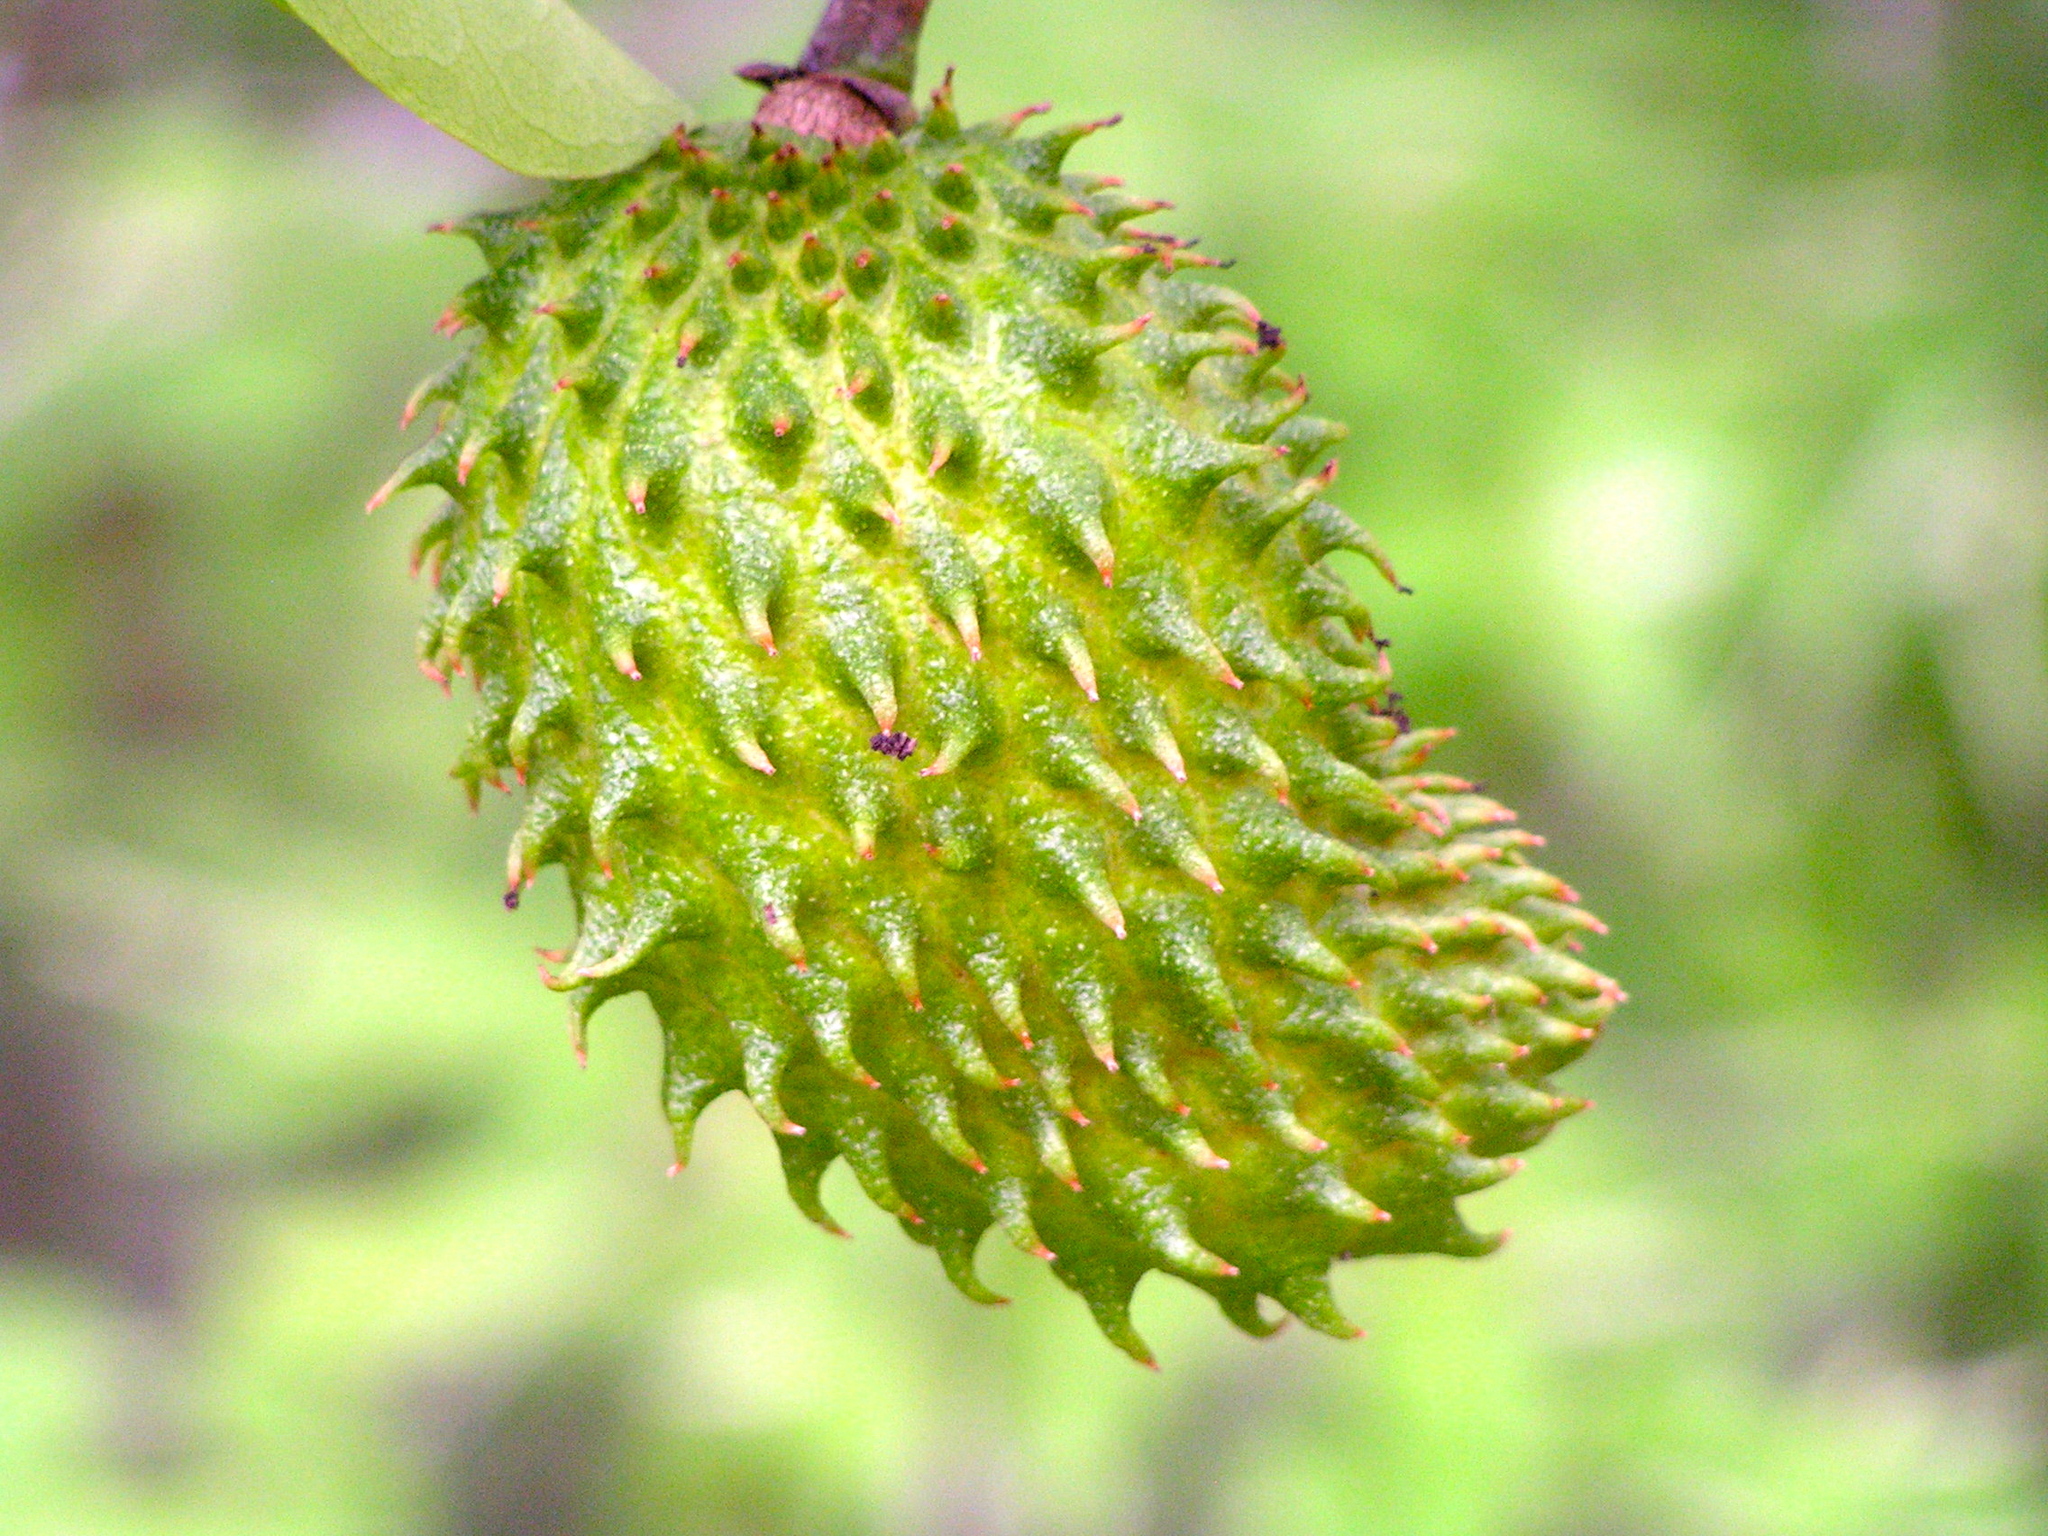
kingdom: Plantae
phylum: Tracheophyta
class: Magnoliopsida
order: Magnoliales
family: Annonaceae
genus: Annona
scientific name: Annona muricata
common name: Soursop
